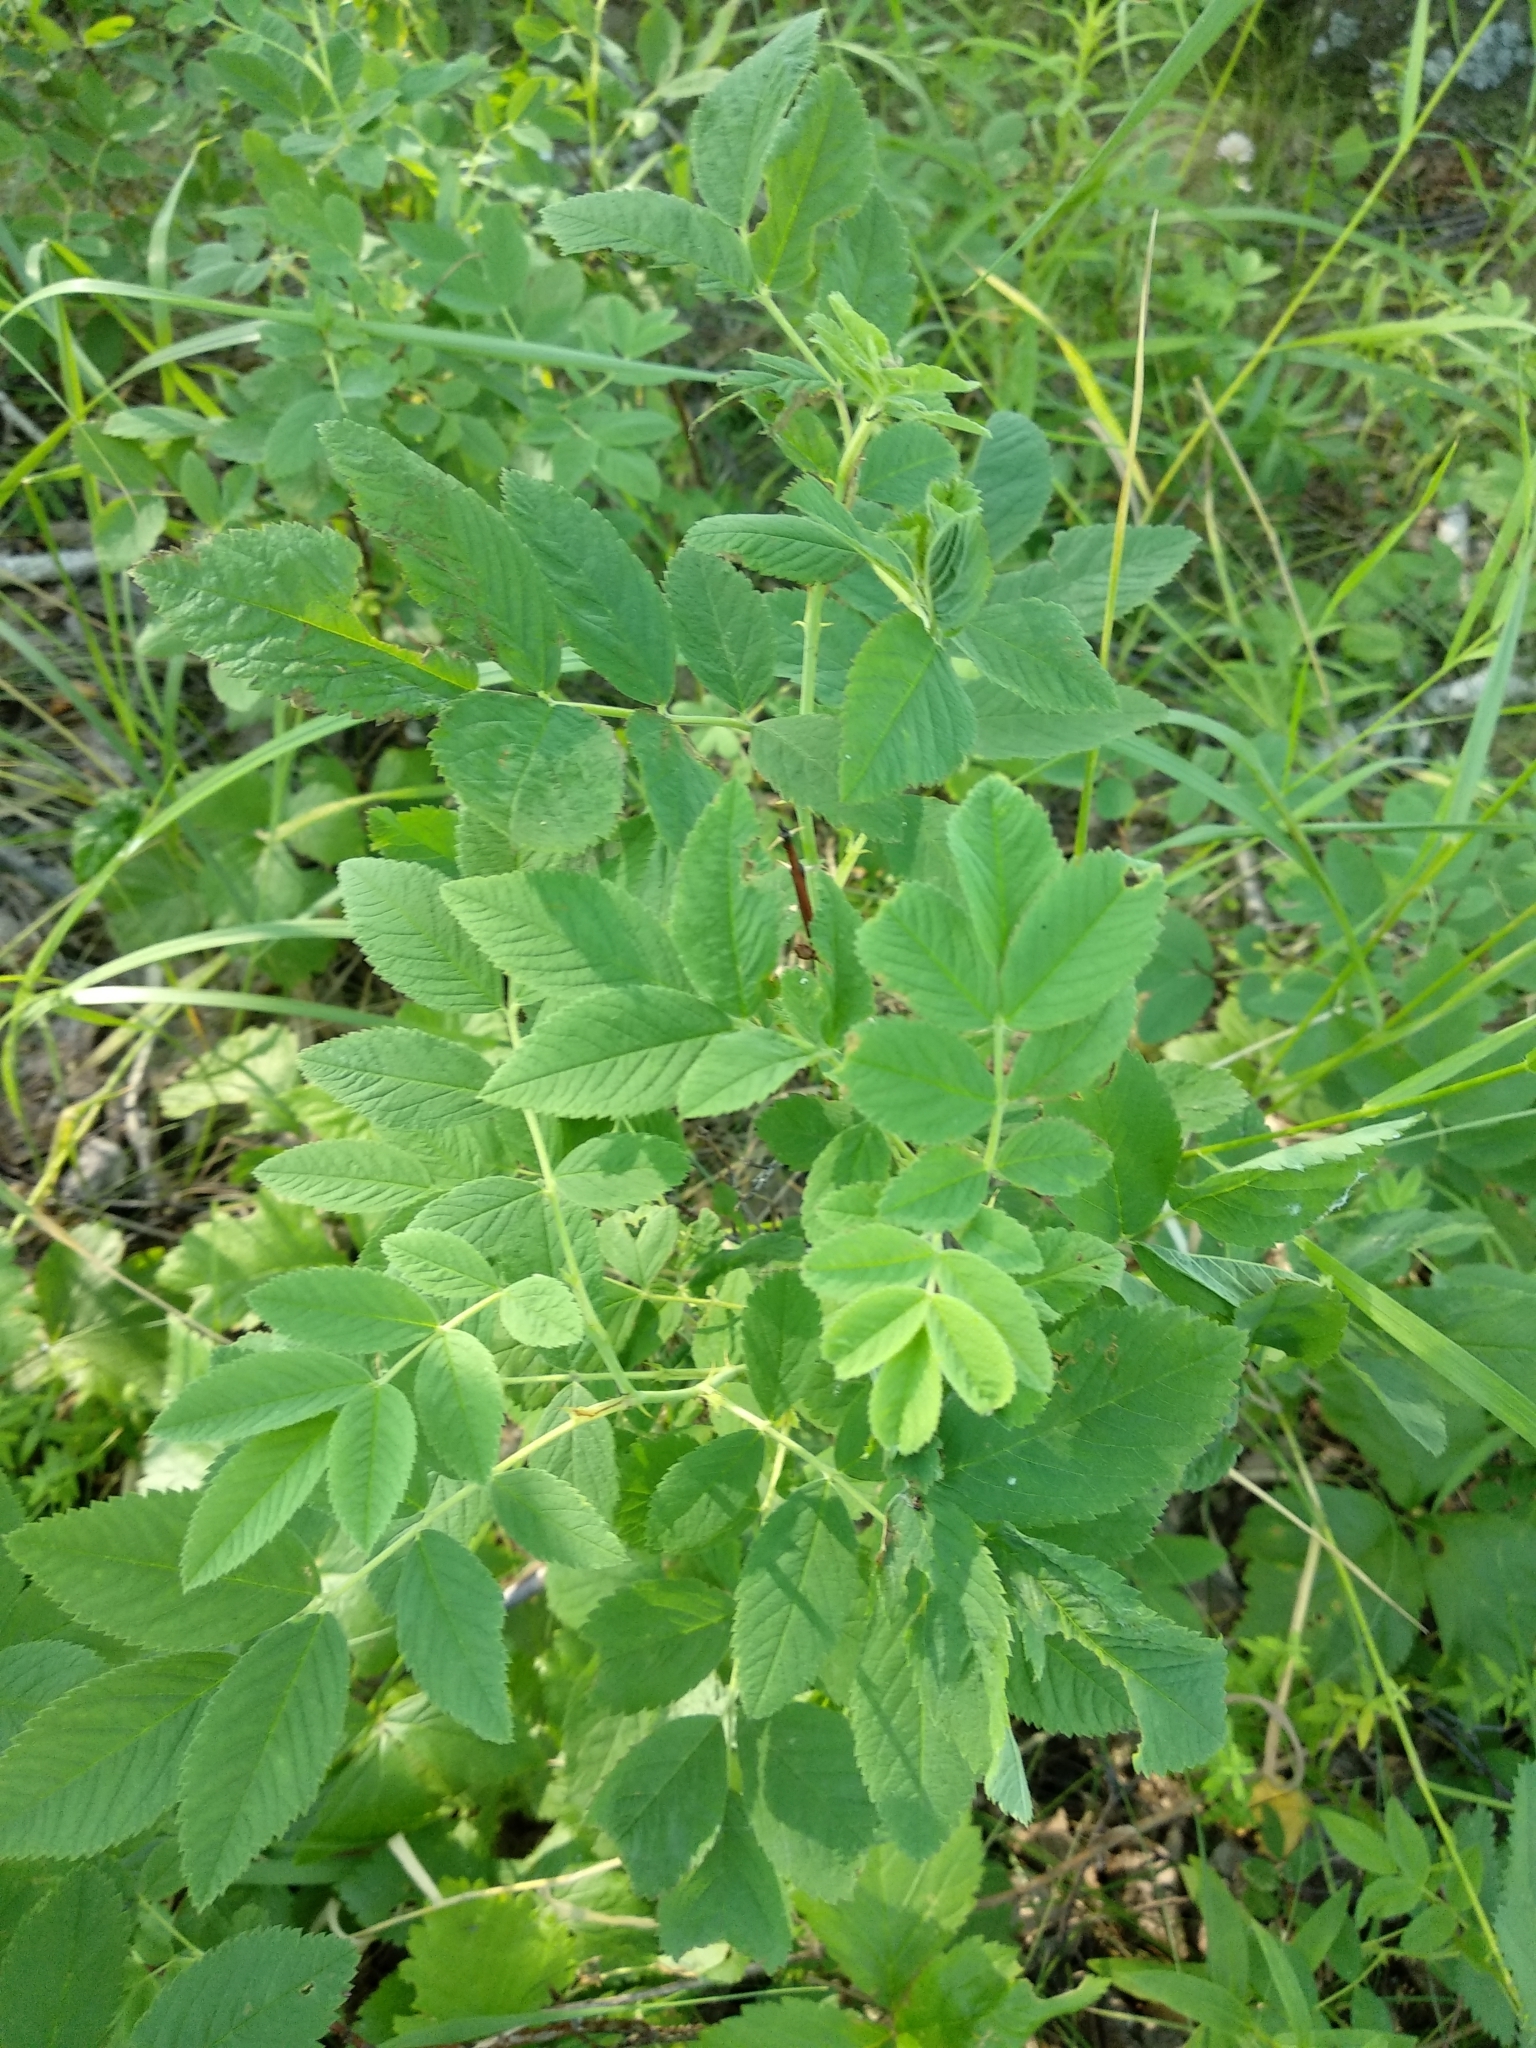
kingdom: Plantae
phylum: Tracheophyta
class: Magnoliopsida
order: Rosales
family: Rosaceae
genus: Rosa
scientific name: Rosa majalis
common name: Cinnamon rose
